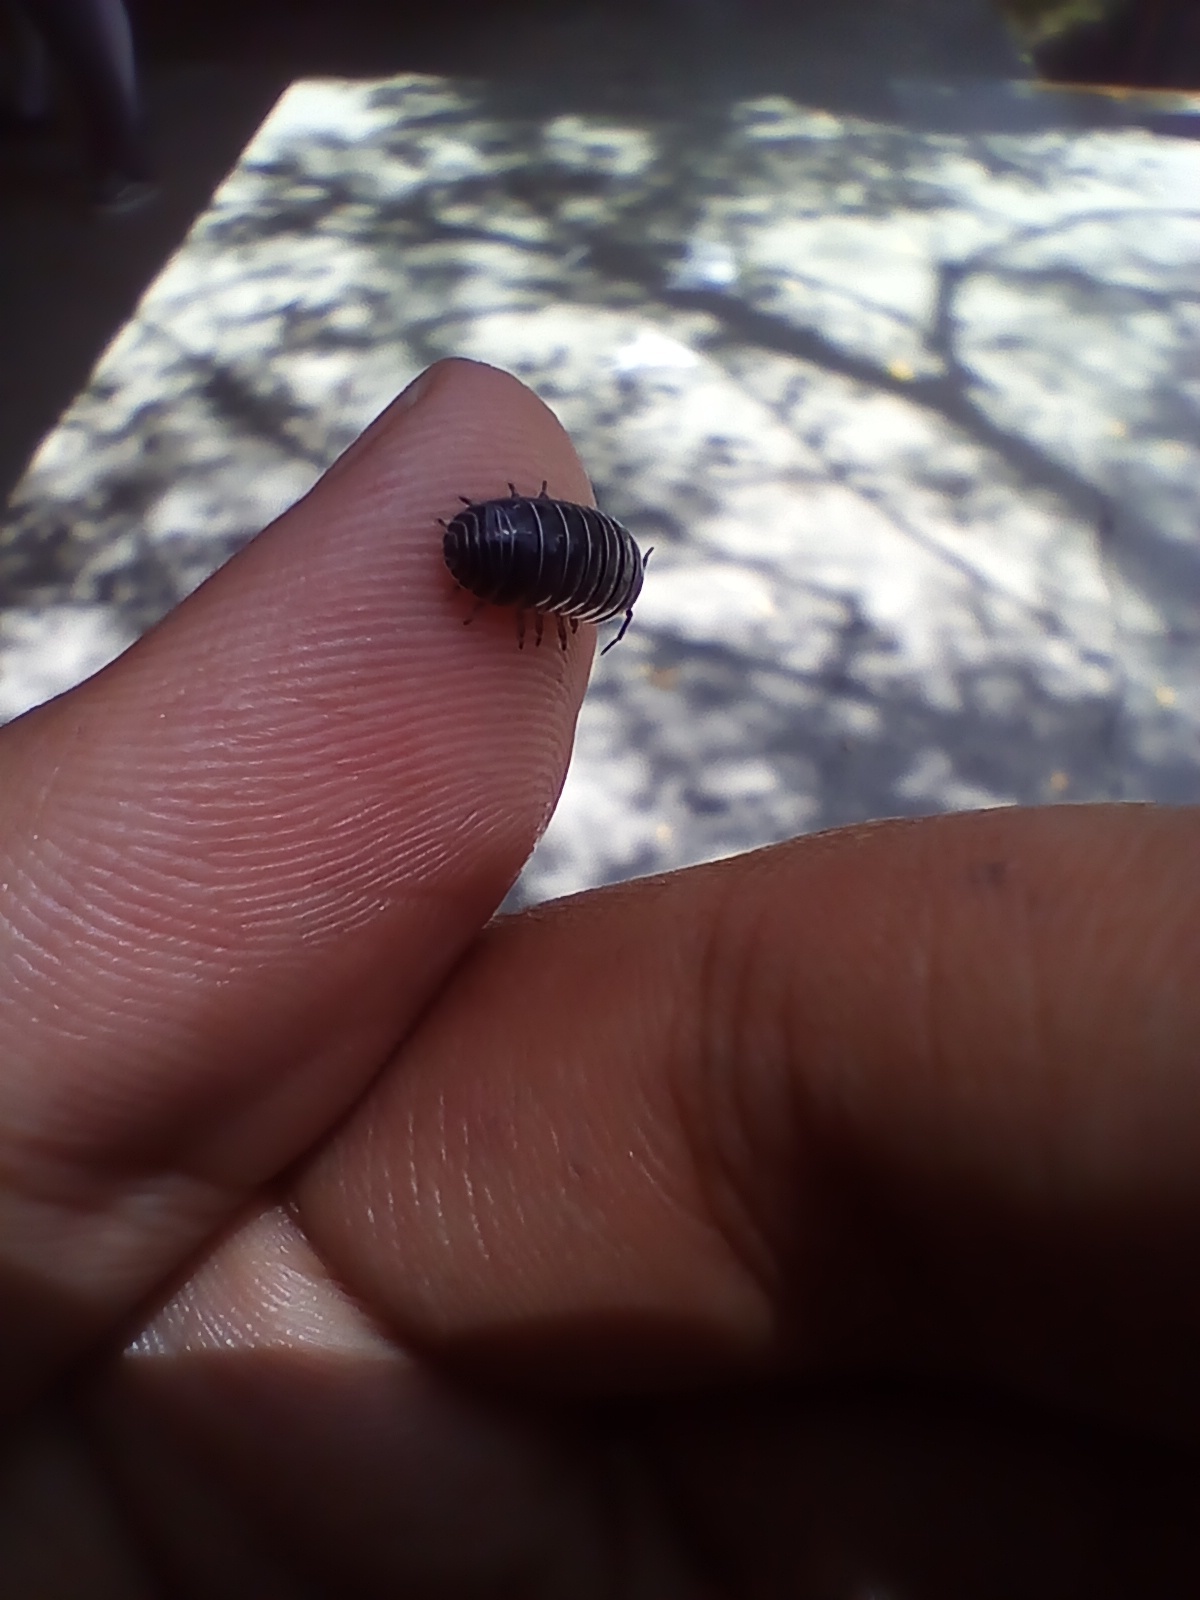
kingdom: Animalia
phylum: Arthropoda
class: Malacostraca
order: Isopoda
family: Armadillidiidae
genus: Armadillidium
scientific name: Armadillidium vulgare
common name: Common pill woodlouse
